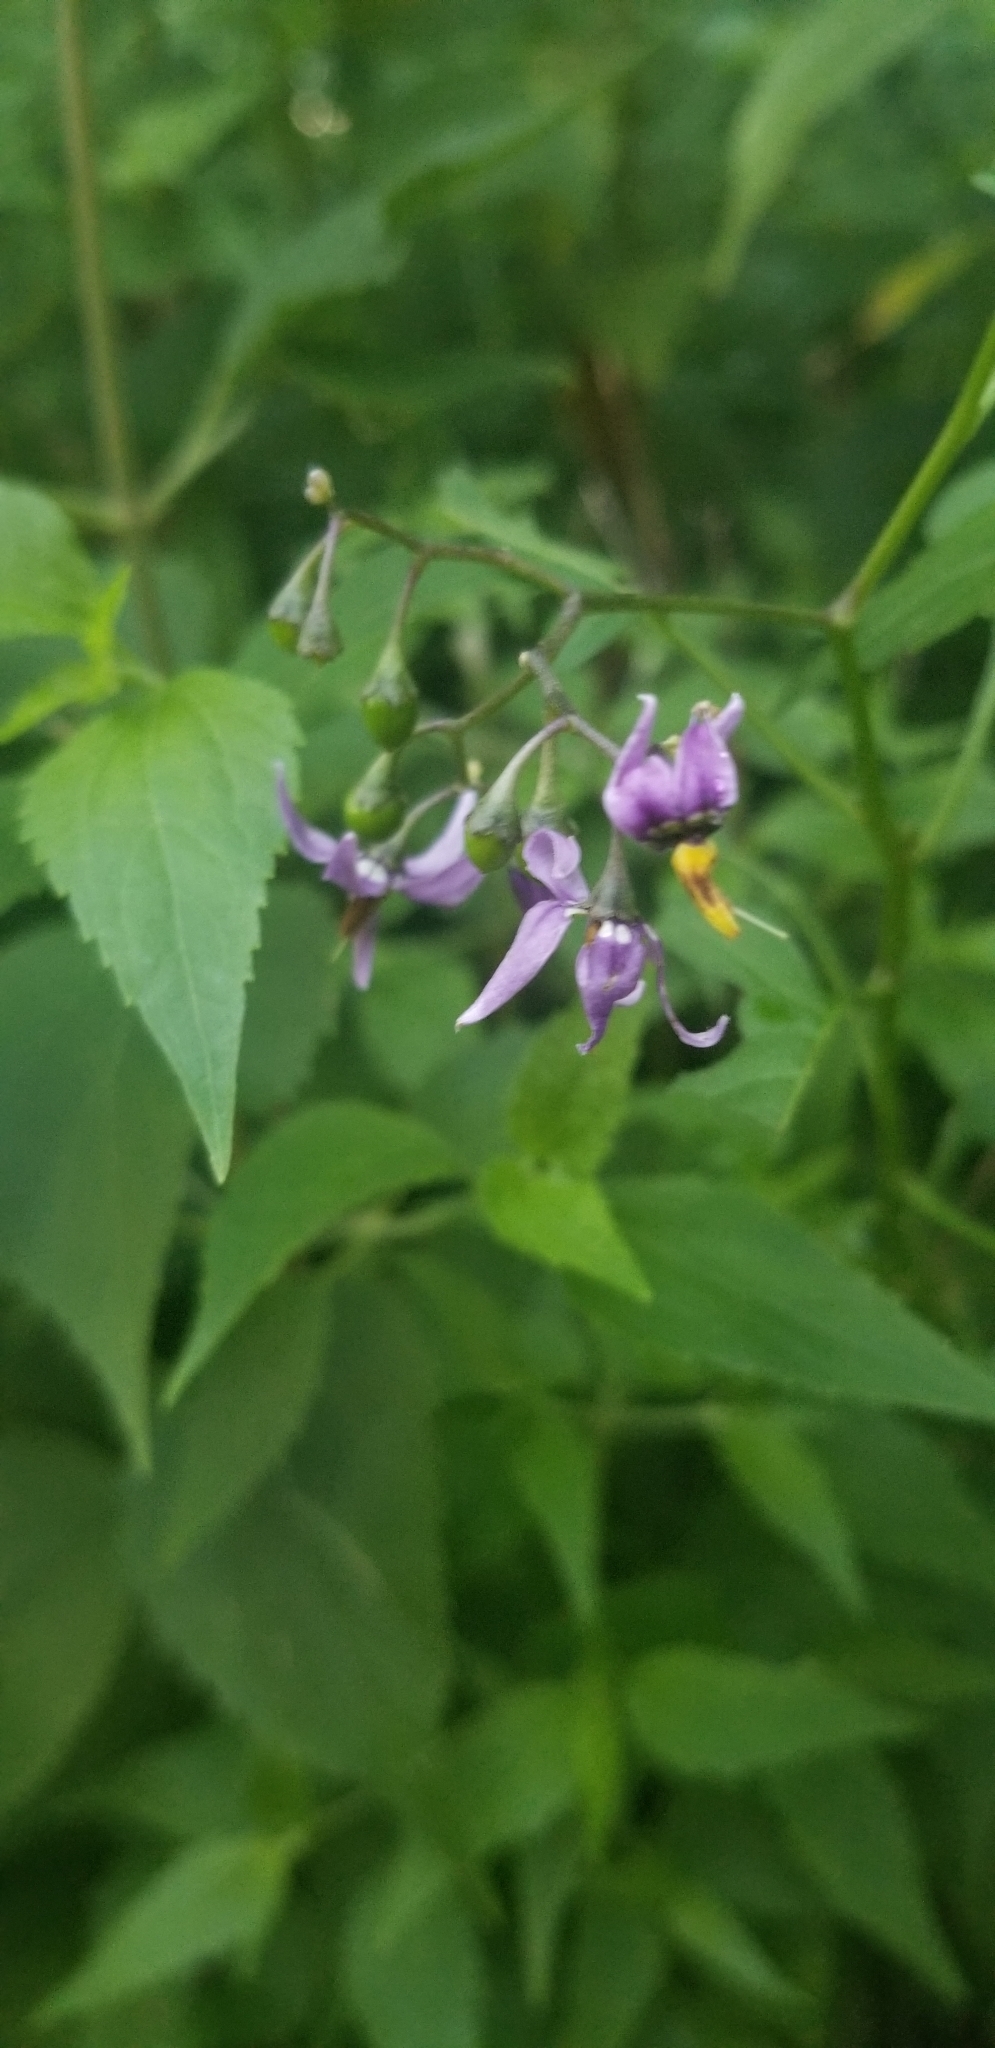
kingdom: Plantae
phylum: Tracheophyta
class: Magnoliopsida
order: Solanales
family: Solanaceae
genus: Solanum
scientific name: Solanum dulcamara
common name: Climbing nightshade
